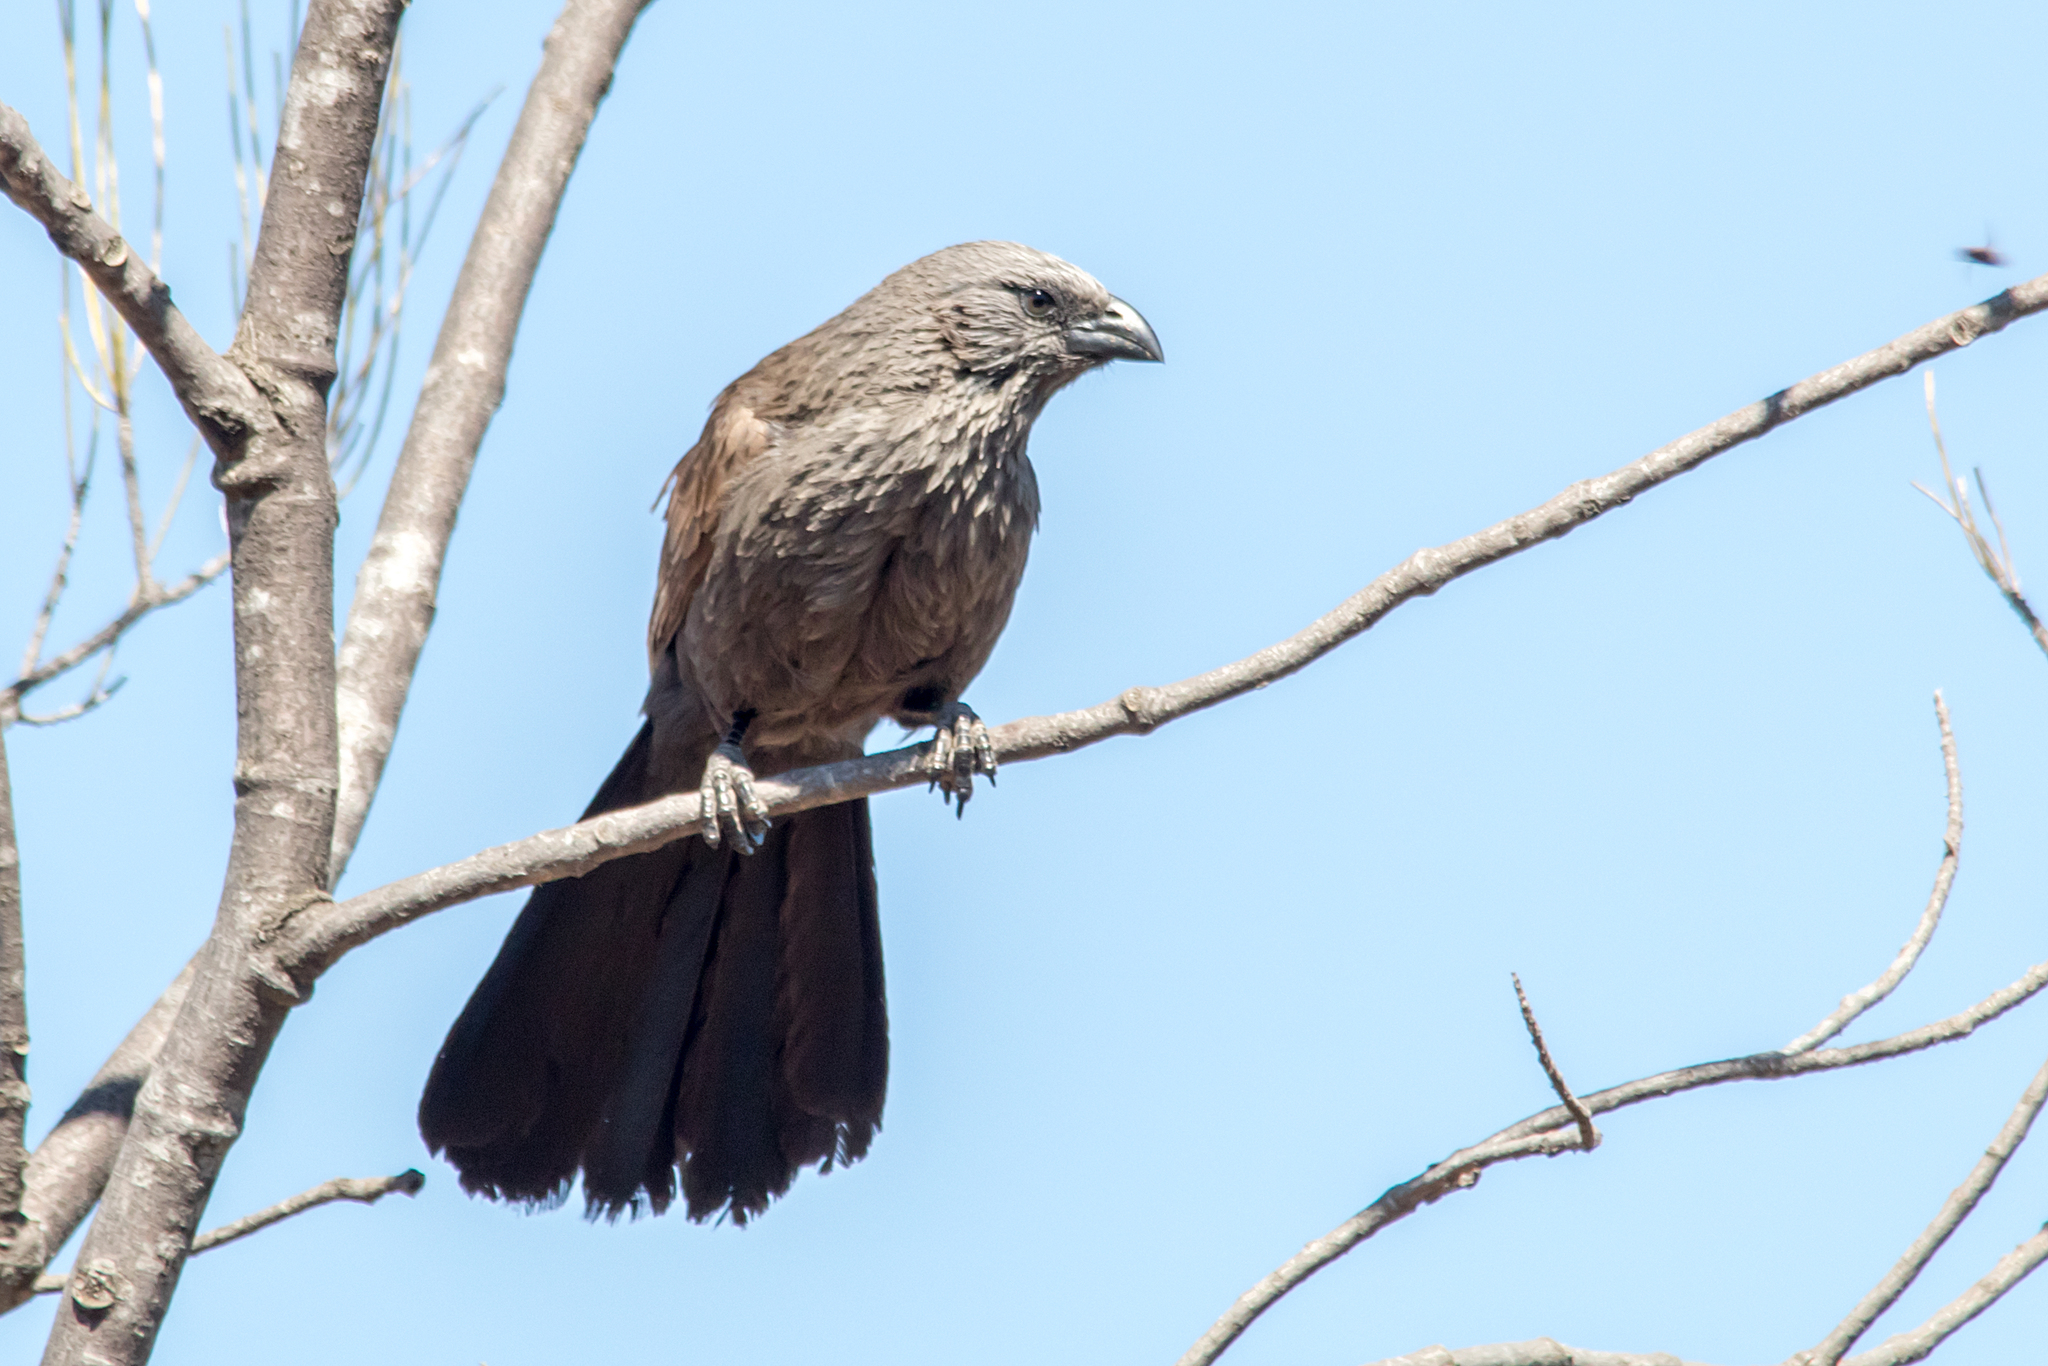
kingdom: Animalia
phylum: Chordata
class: Aves
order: Passeriformes
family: Corcoracidae
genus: Struthidea
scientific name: Struthidea cinerea
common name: Apostlebird
